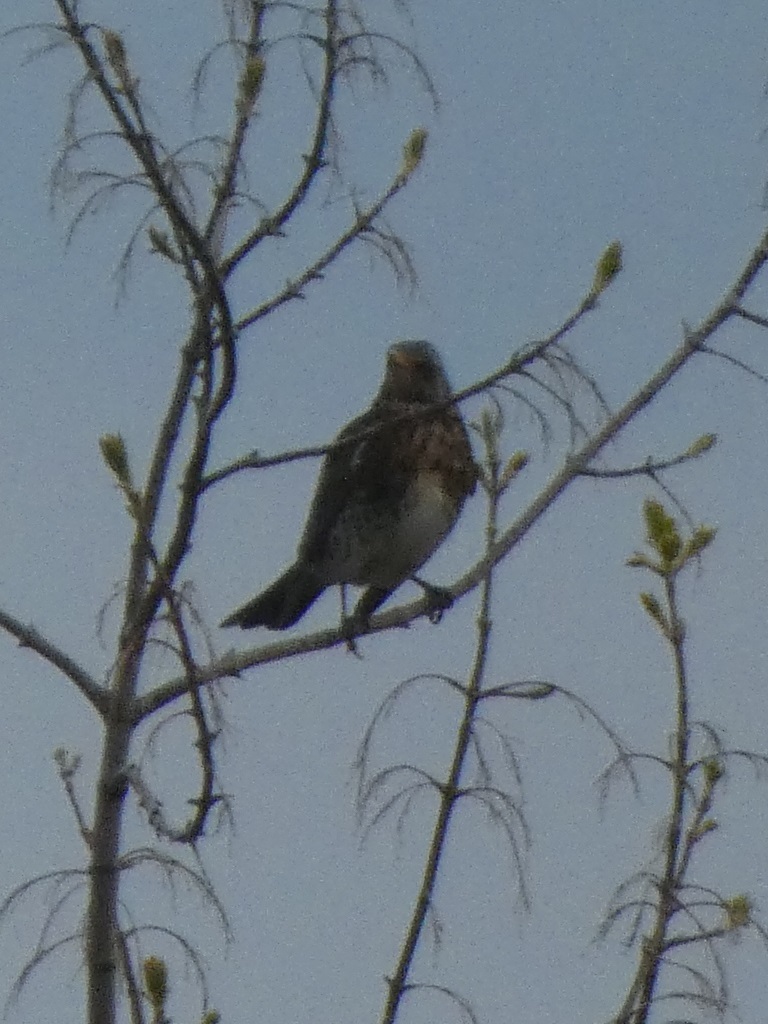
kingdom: Animalia
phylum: Chordata
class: Aves
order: Passeriformes
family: Turdidae
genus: Turdus
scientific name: Turdus pilaris
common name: Fieldfare
